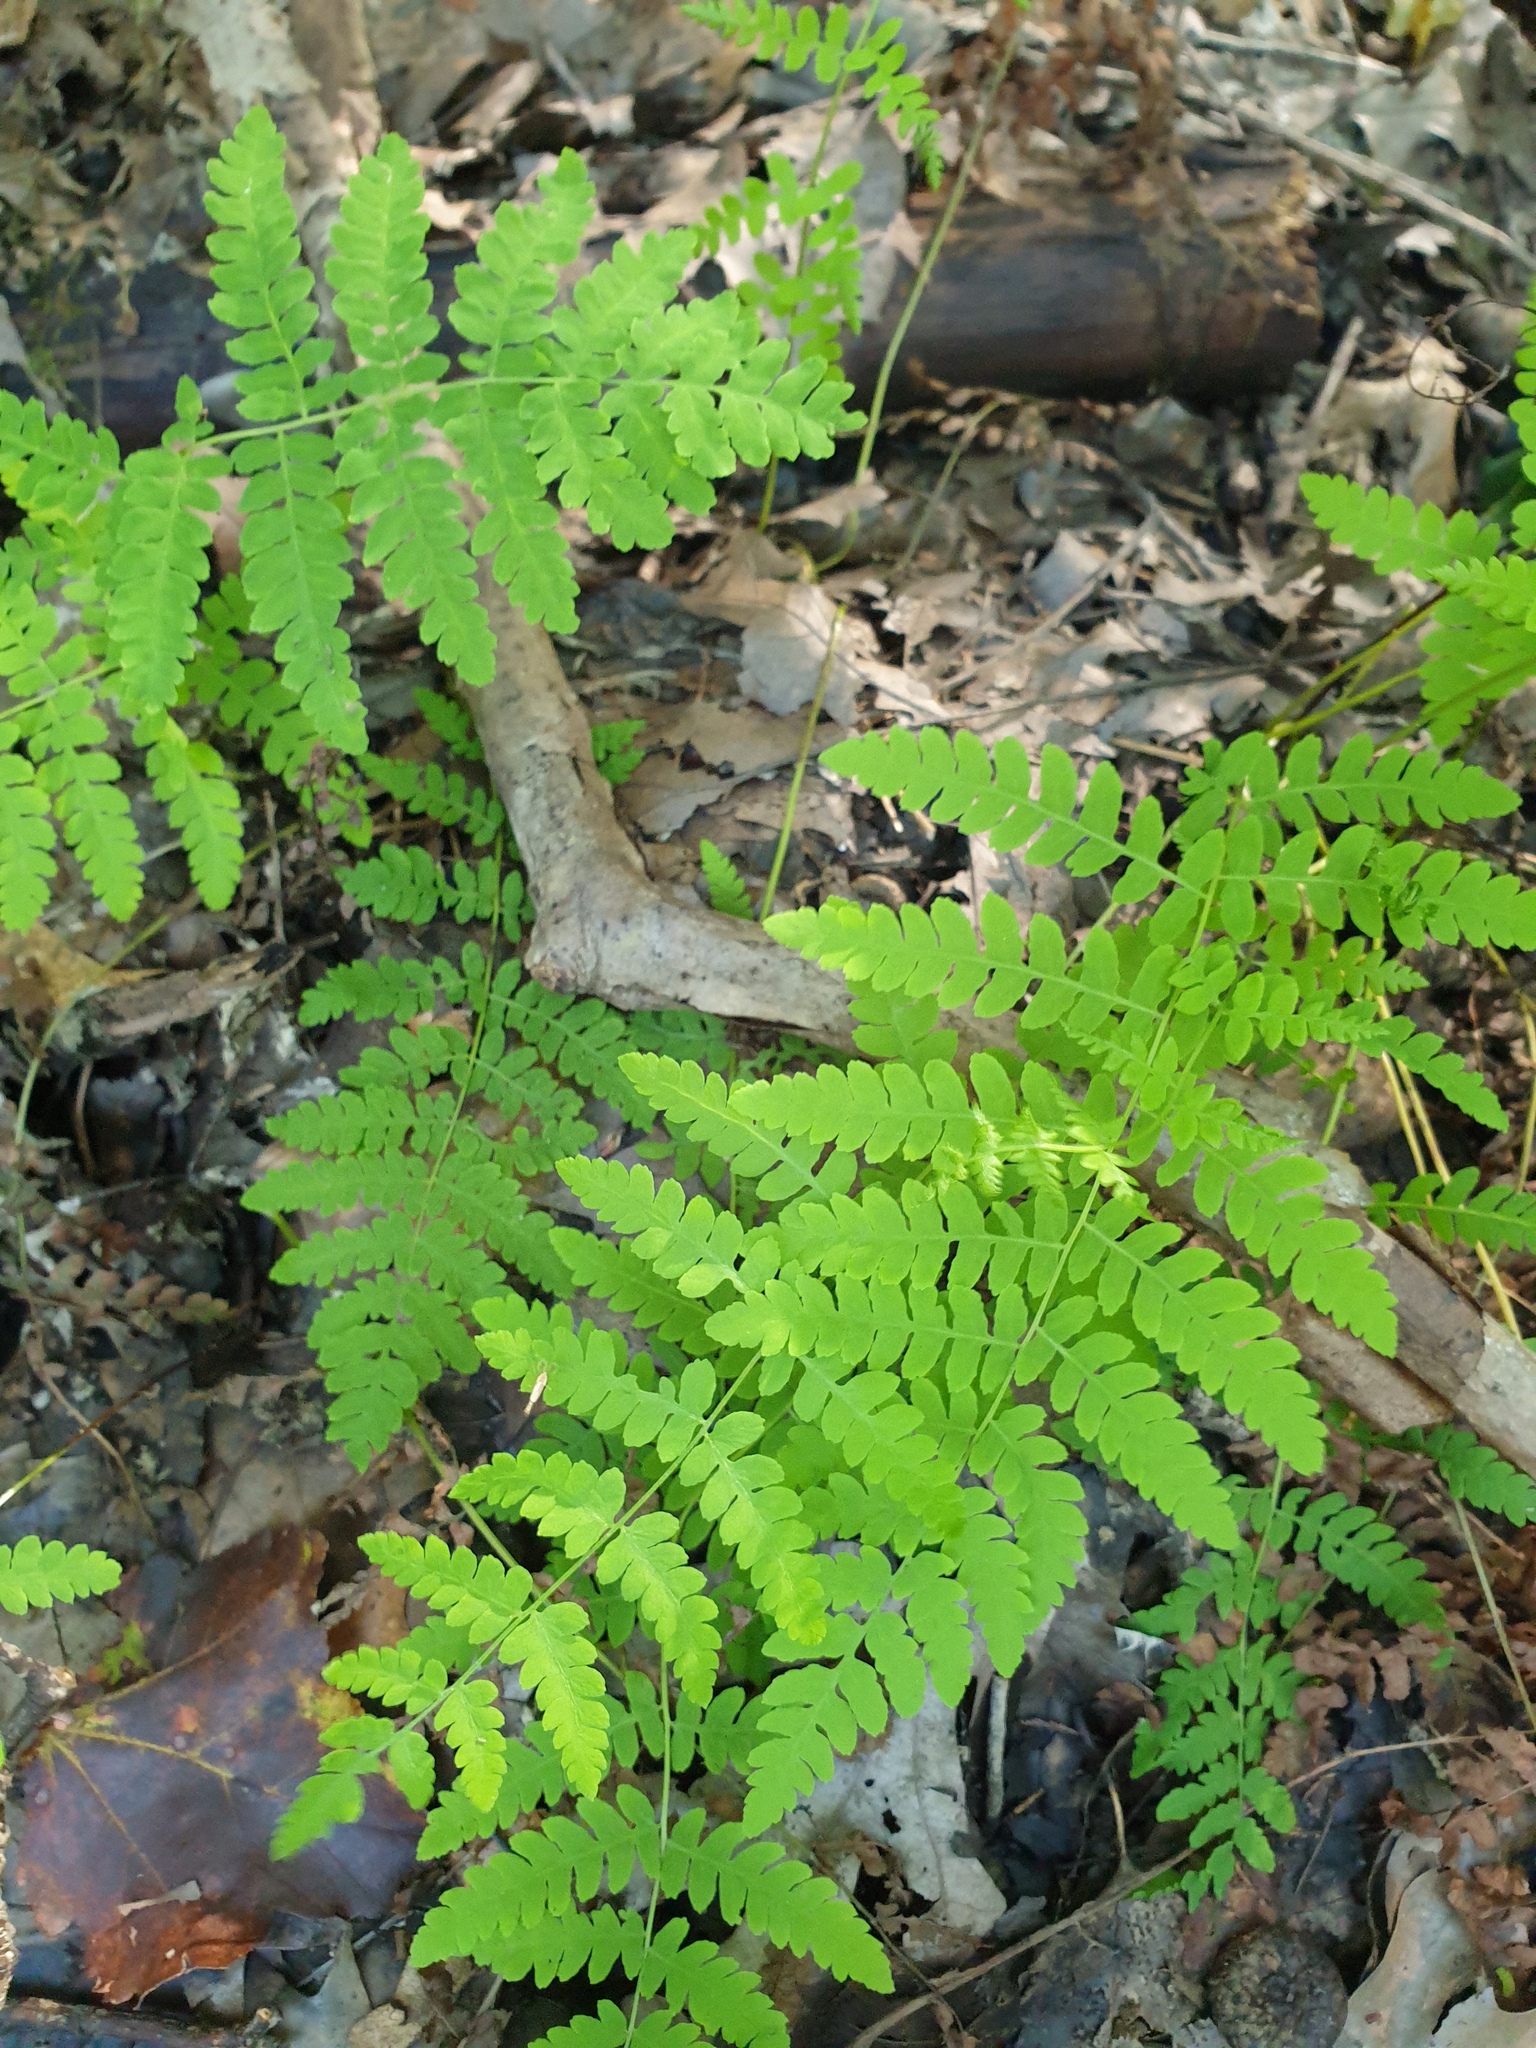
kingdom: Plantae
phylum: Tracheophyta
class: Polypodiopsida
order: Polypodiales
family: Thelypteridaceae
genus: Thelypteris
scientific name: Thelypteris palustris
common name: Marsh fern
